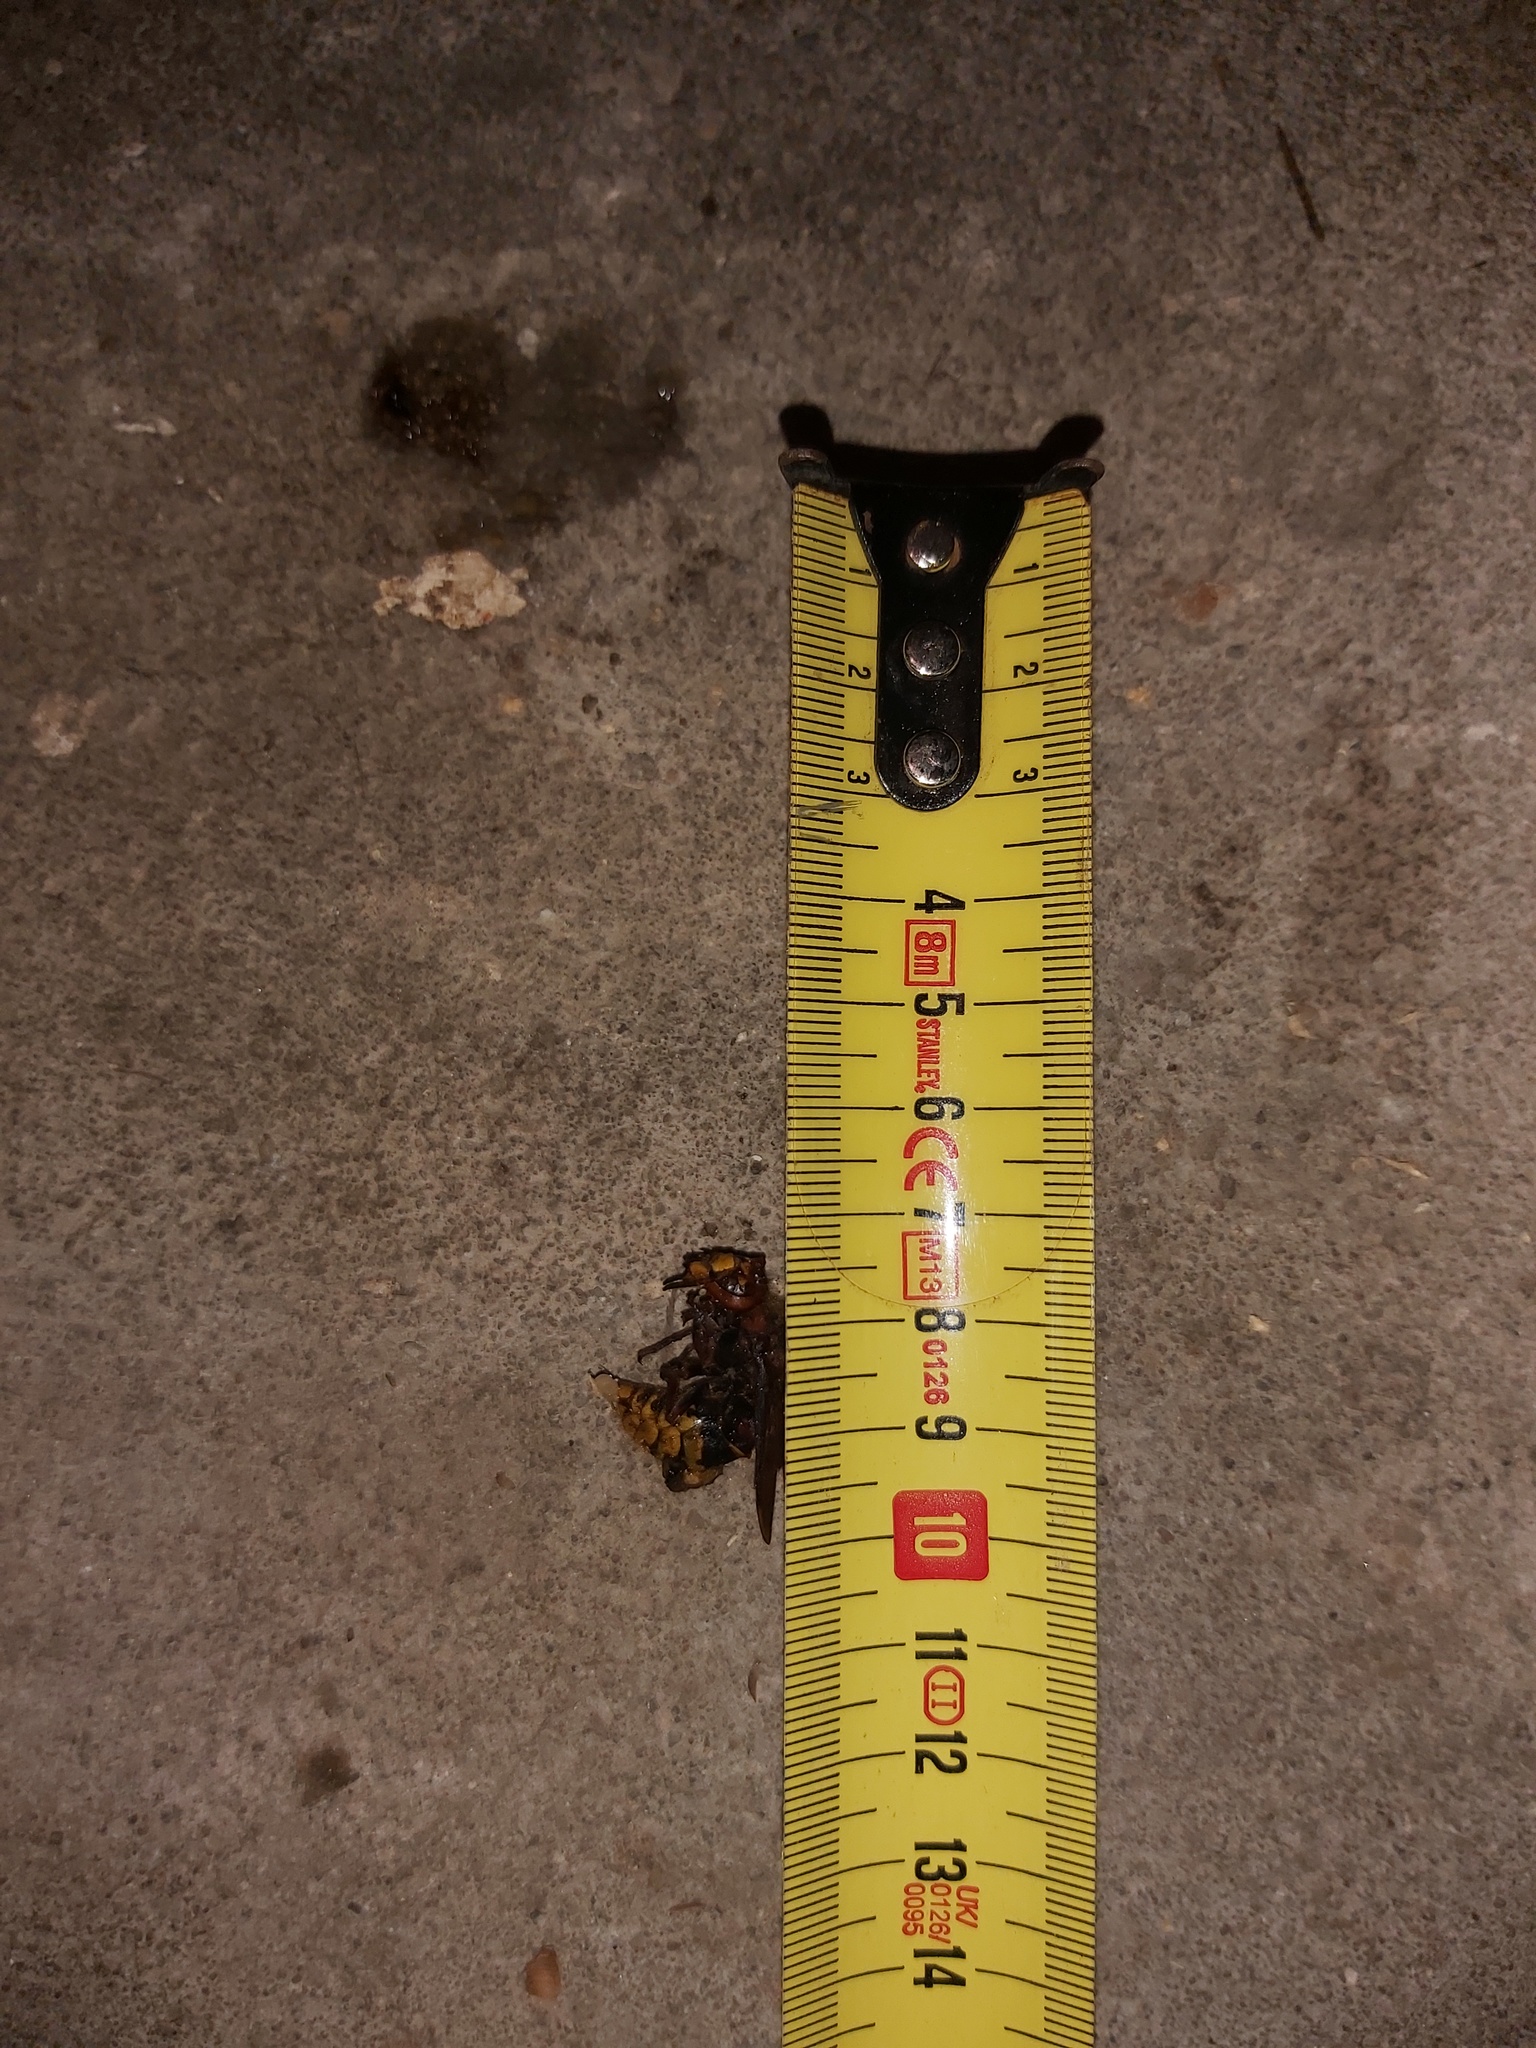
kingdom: Animalia
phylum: Arthropoda
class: Insecta
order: Hymenoptera
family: Vespidae
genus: Vespa
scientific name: Vespa crabro
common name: Hornet
